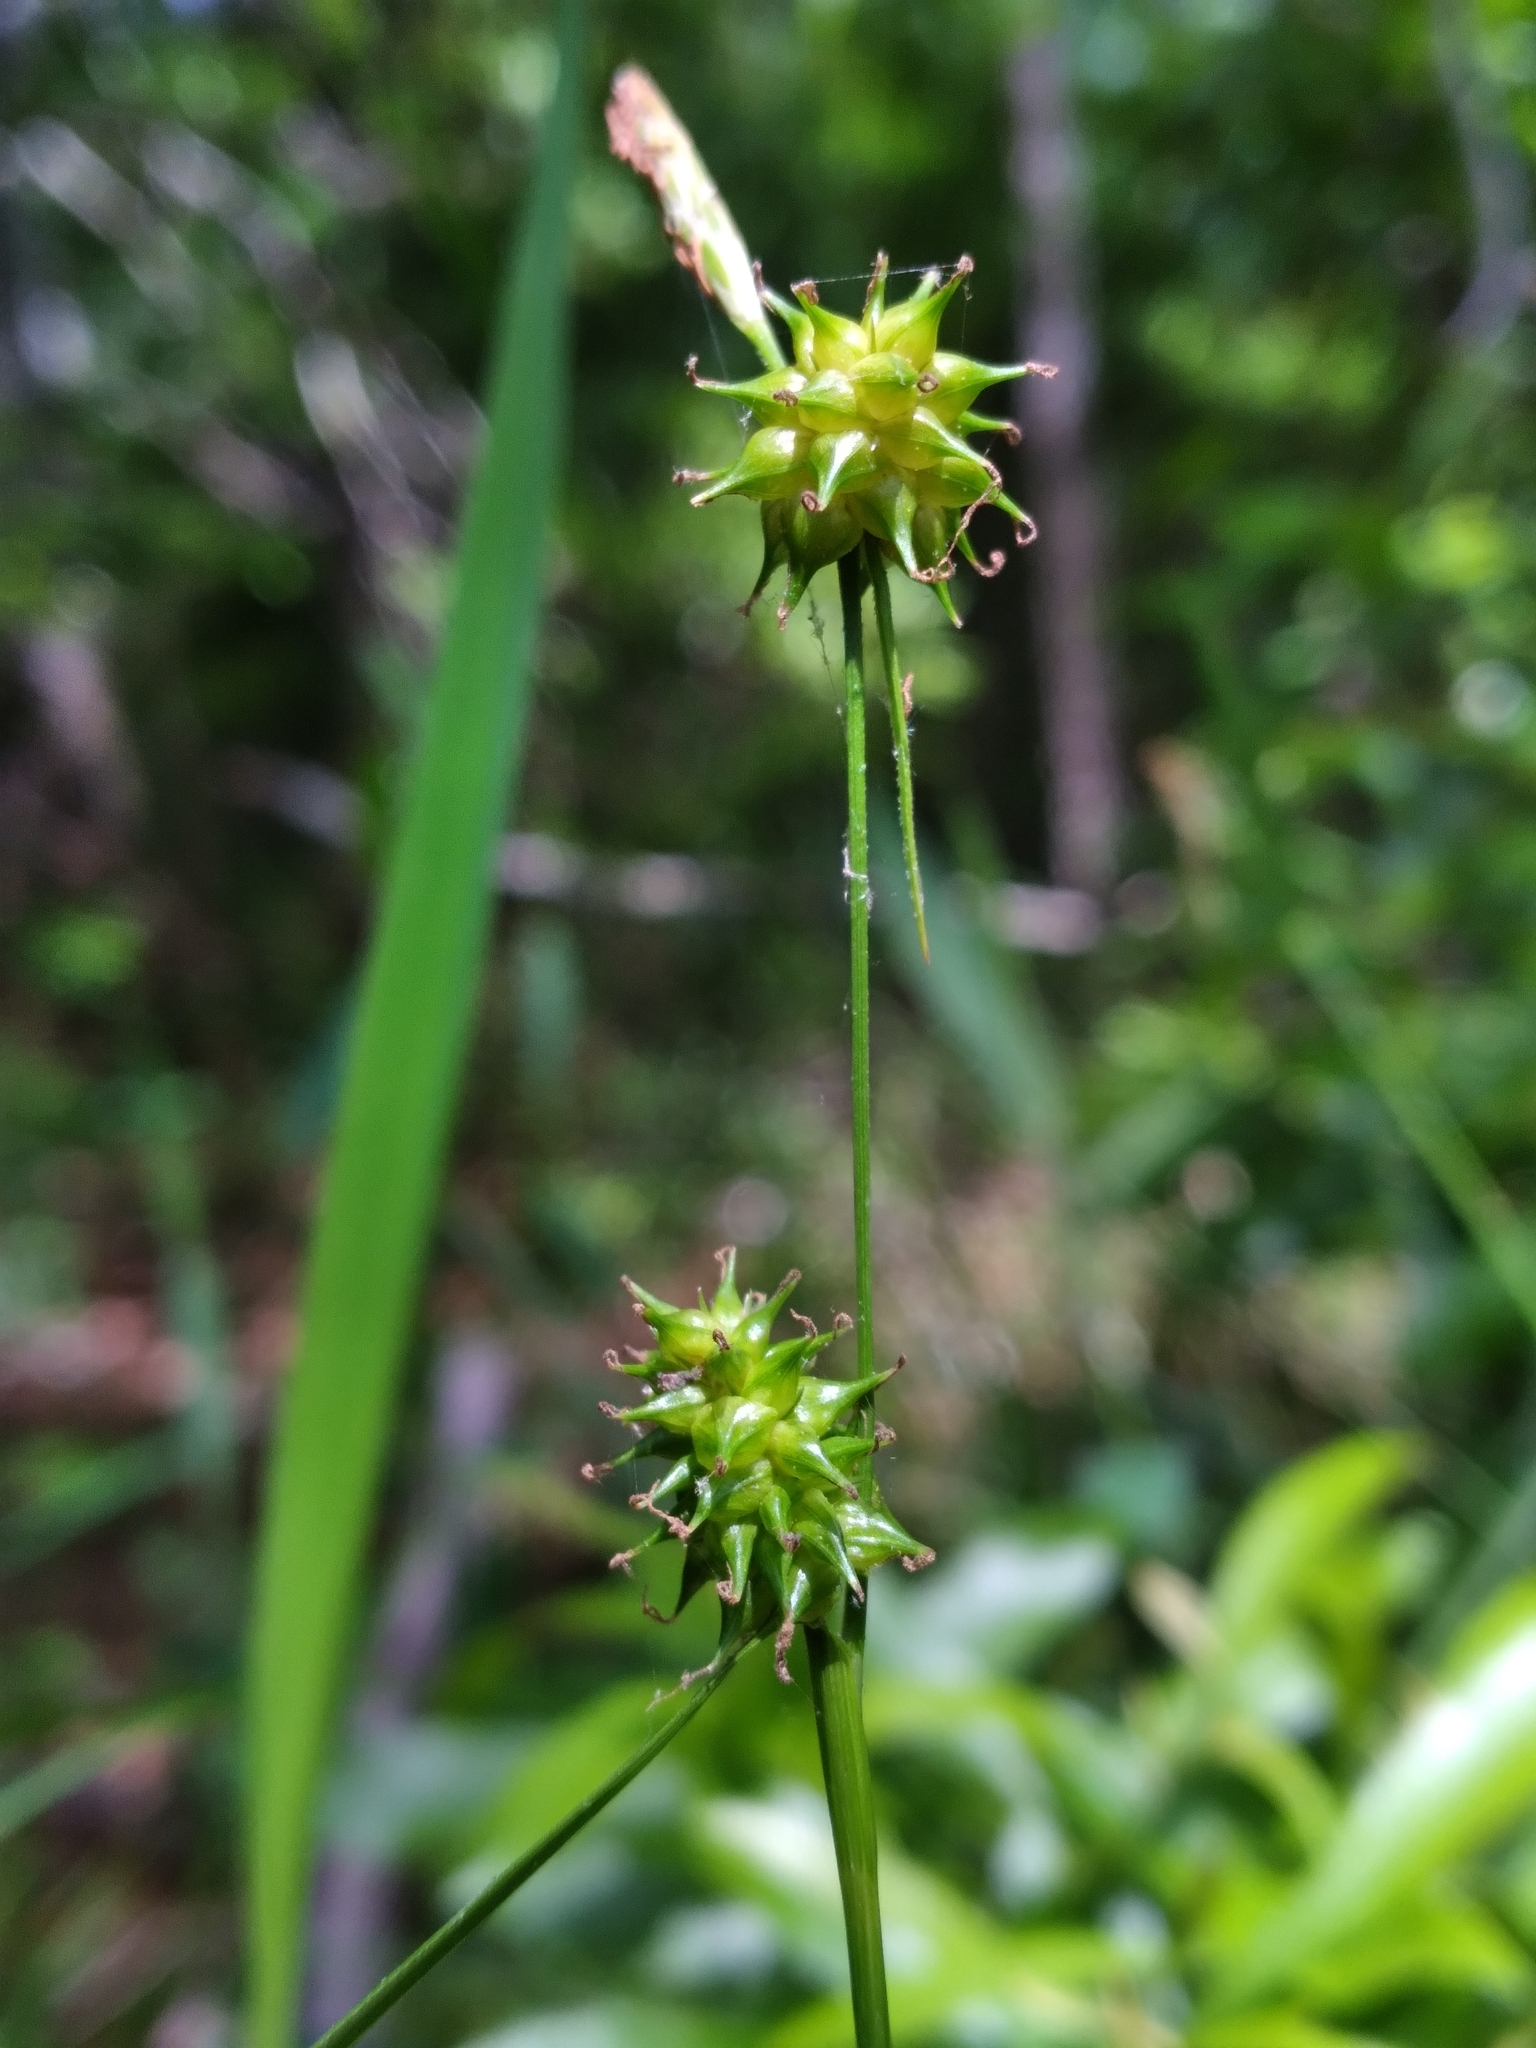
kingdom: Plantae
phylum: Tracheophyta
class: Liliopsida
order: Poales
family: Cyperaceae
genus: Carex
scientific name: Carex lutea
